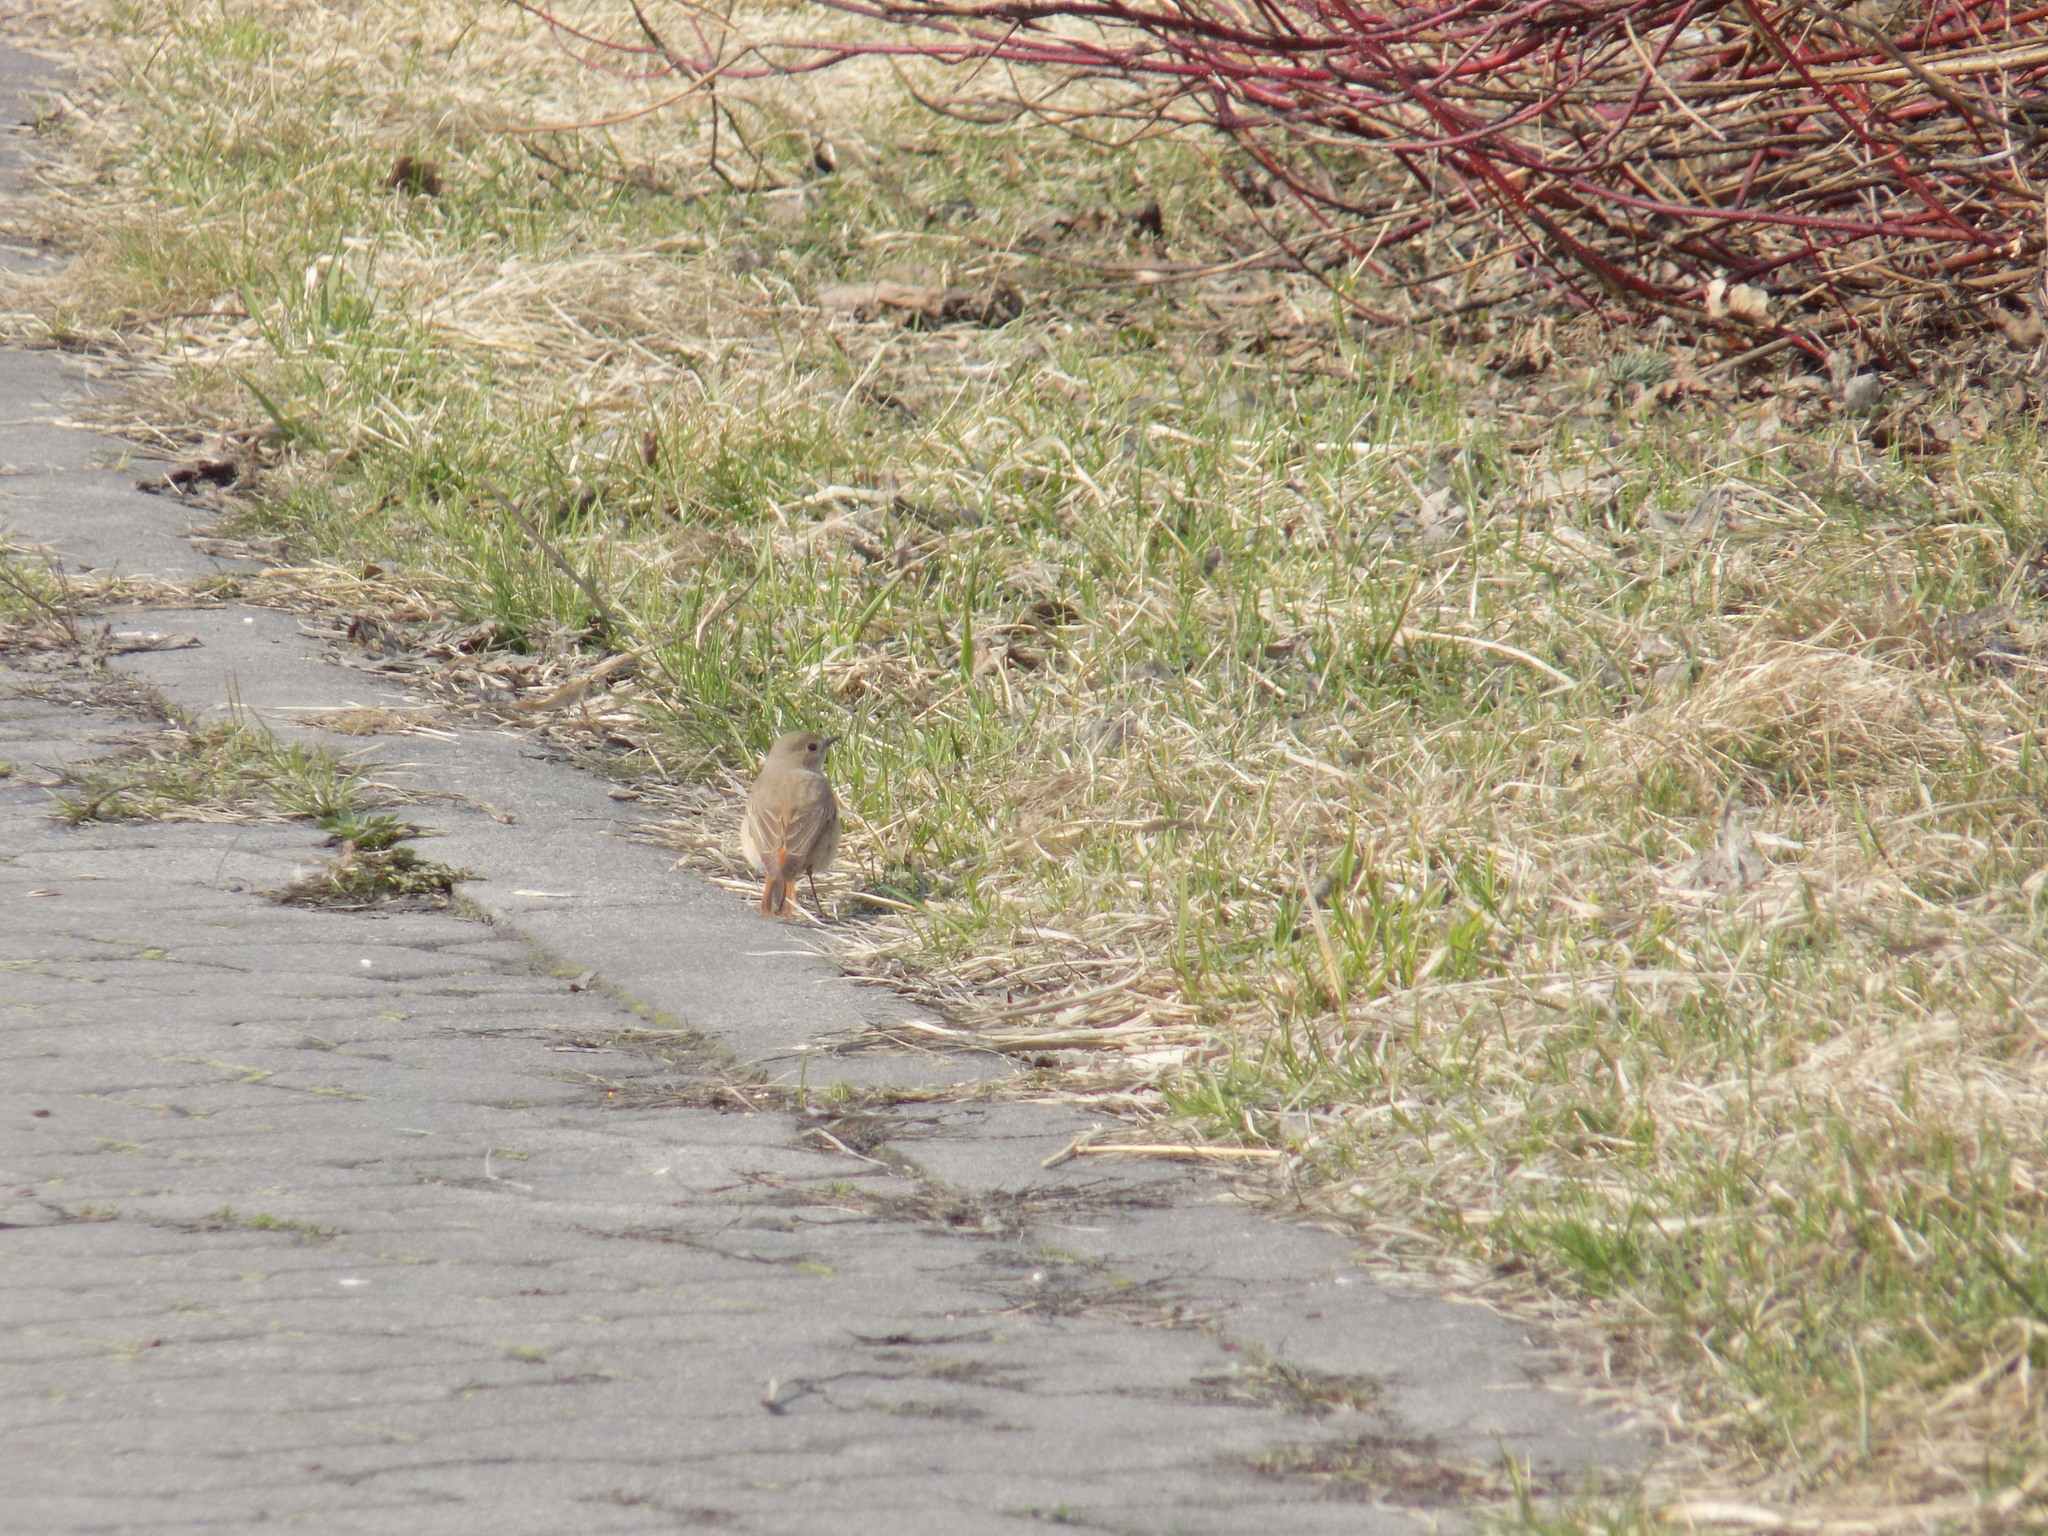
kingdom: Animalia
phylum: Chordata
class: Aves
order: Passeriformes
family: Muscicapidae
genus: Phoenicurus
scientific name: Phoenicurus phoenicurus
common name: Common redstart
